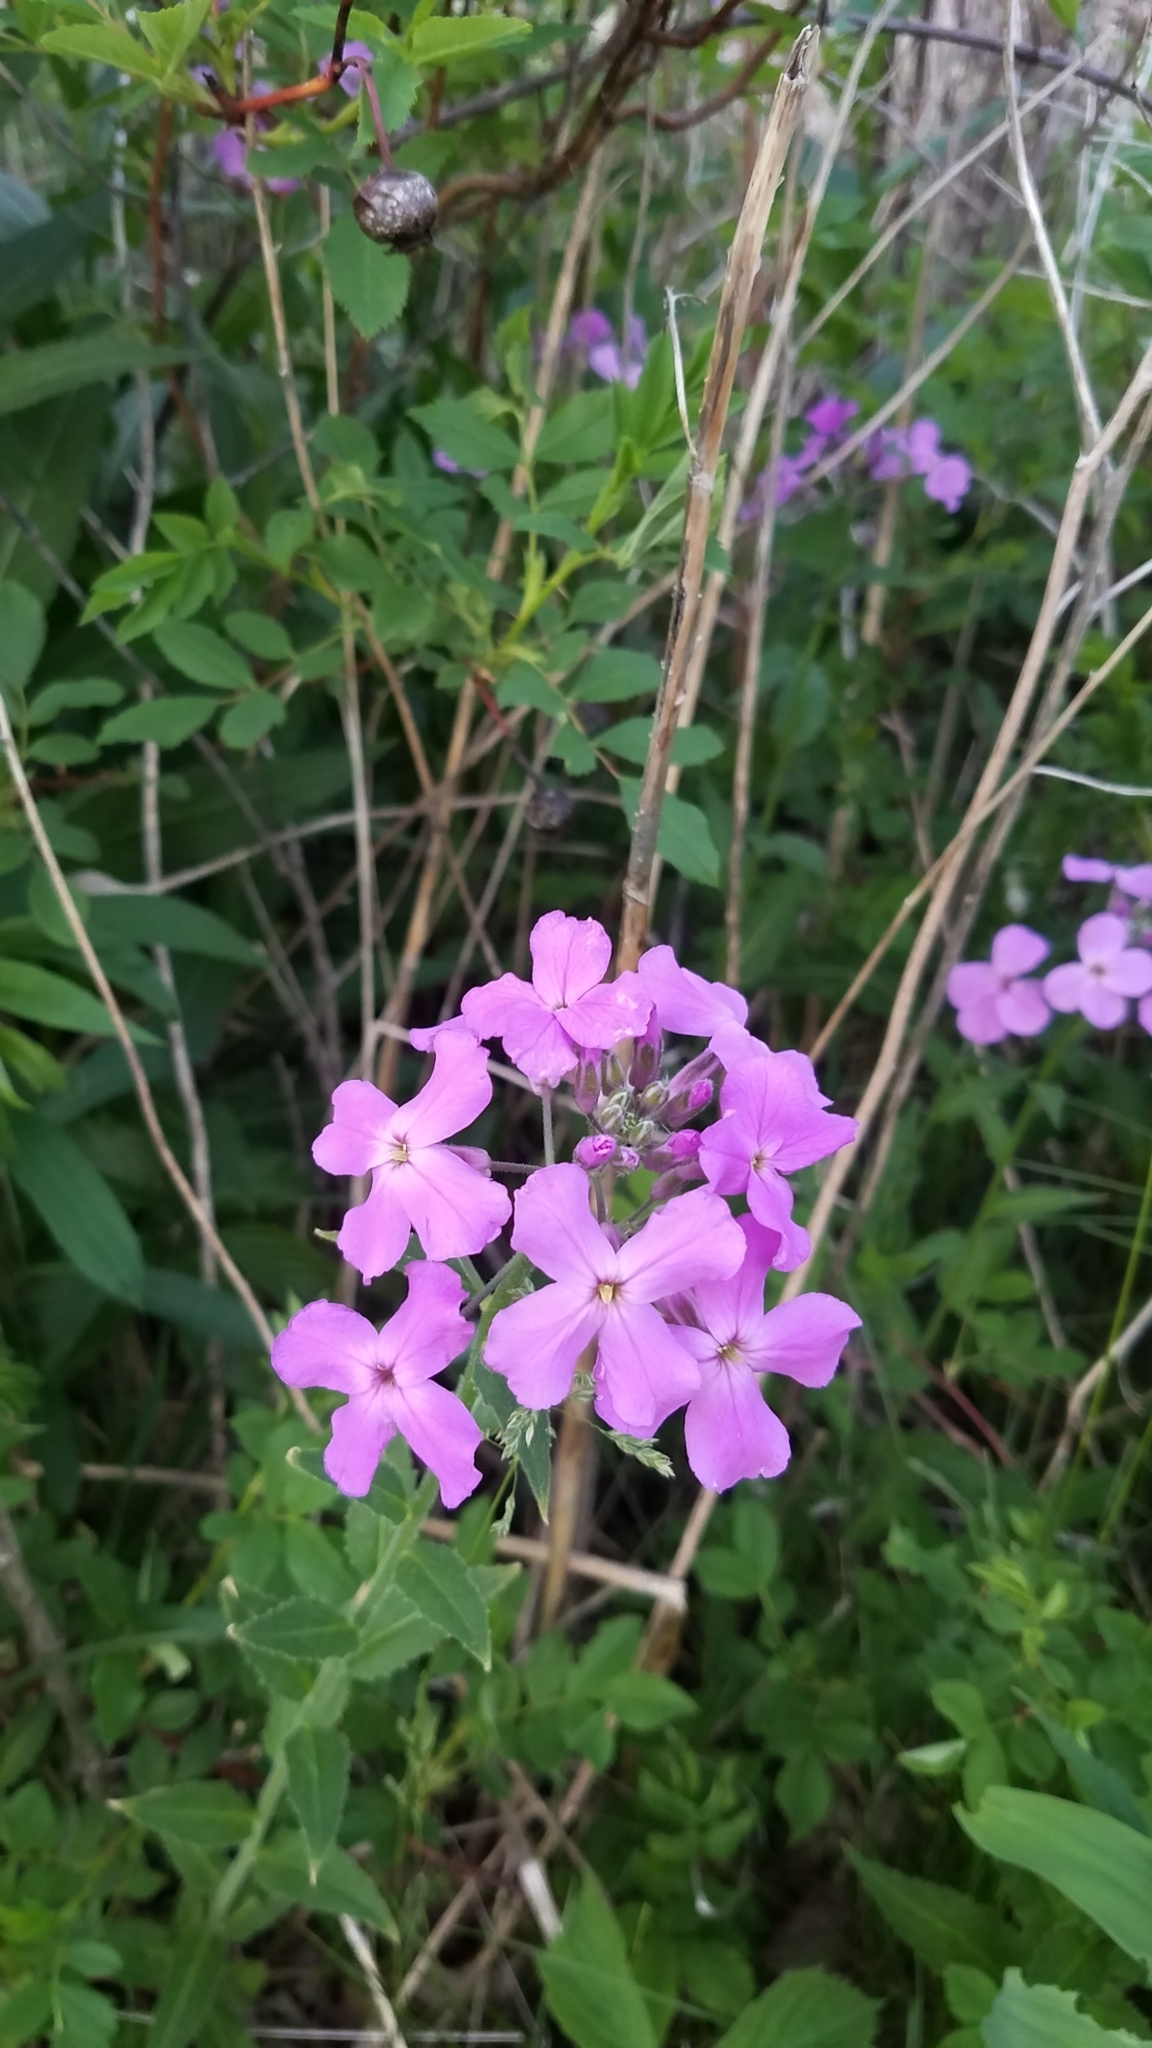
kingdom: Plantae
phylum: Tracheophyta
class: Magnoliopsida
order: Brassicales
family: Brassicaceae
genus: Hesperis
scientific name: Hesperis matronalis
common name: Dame's-violet
